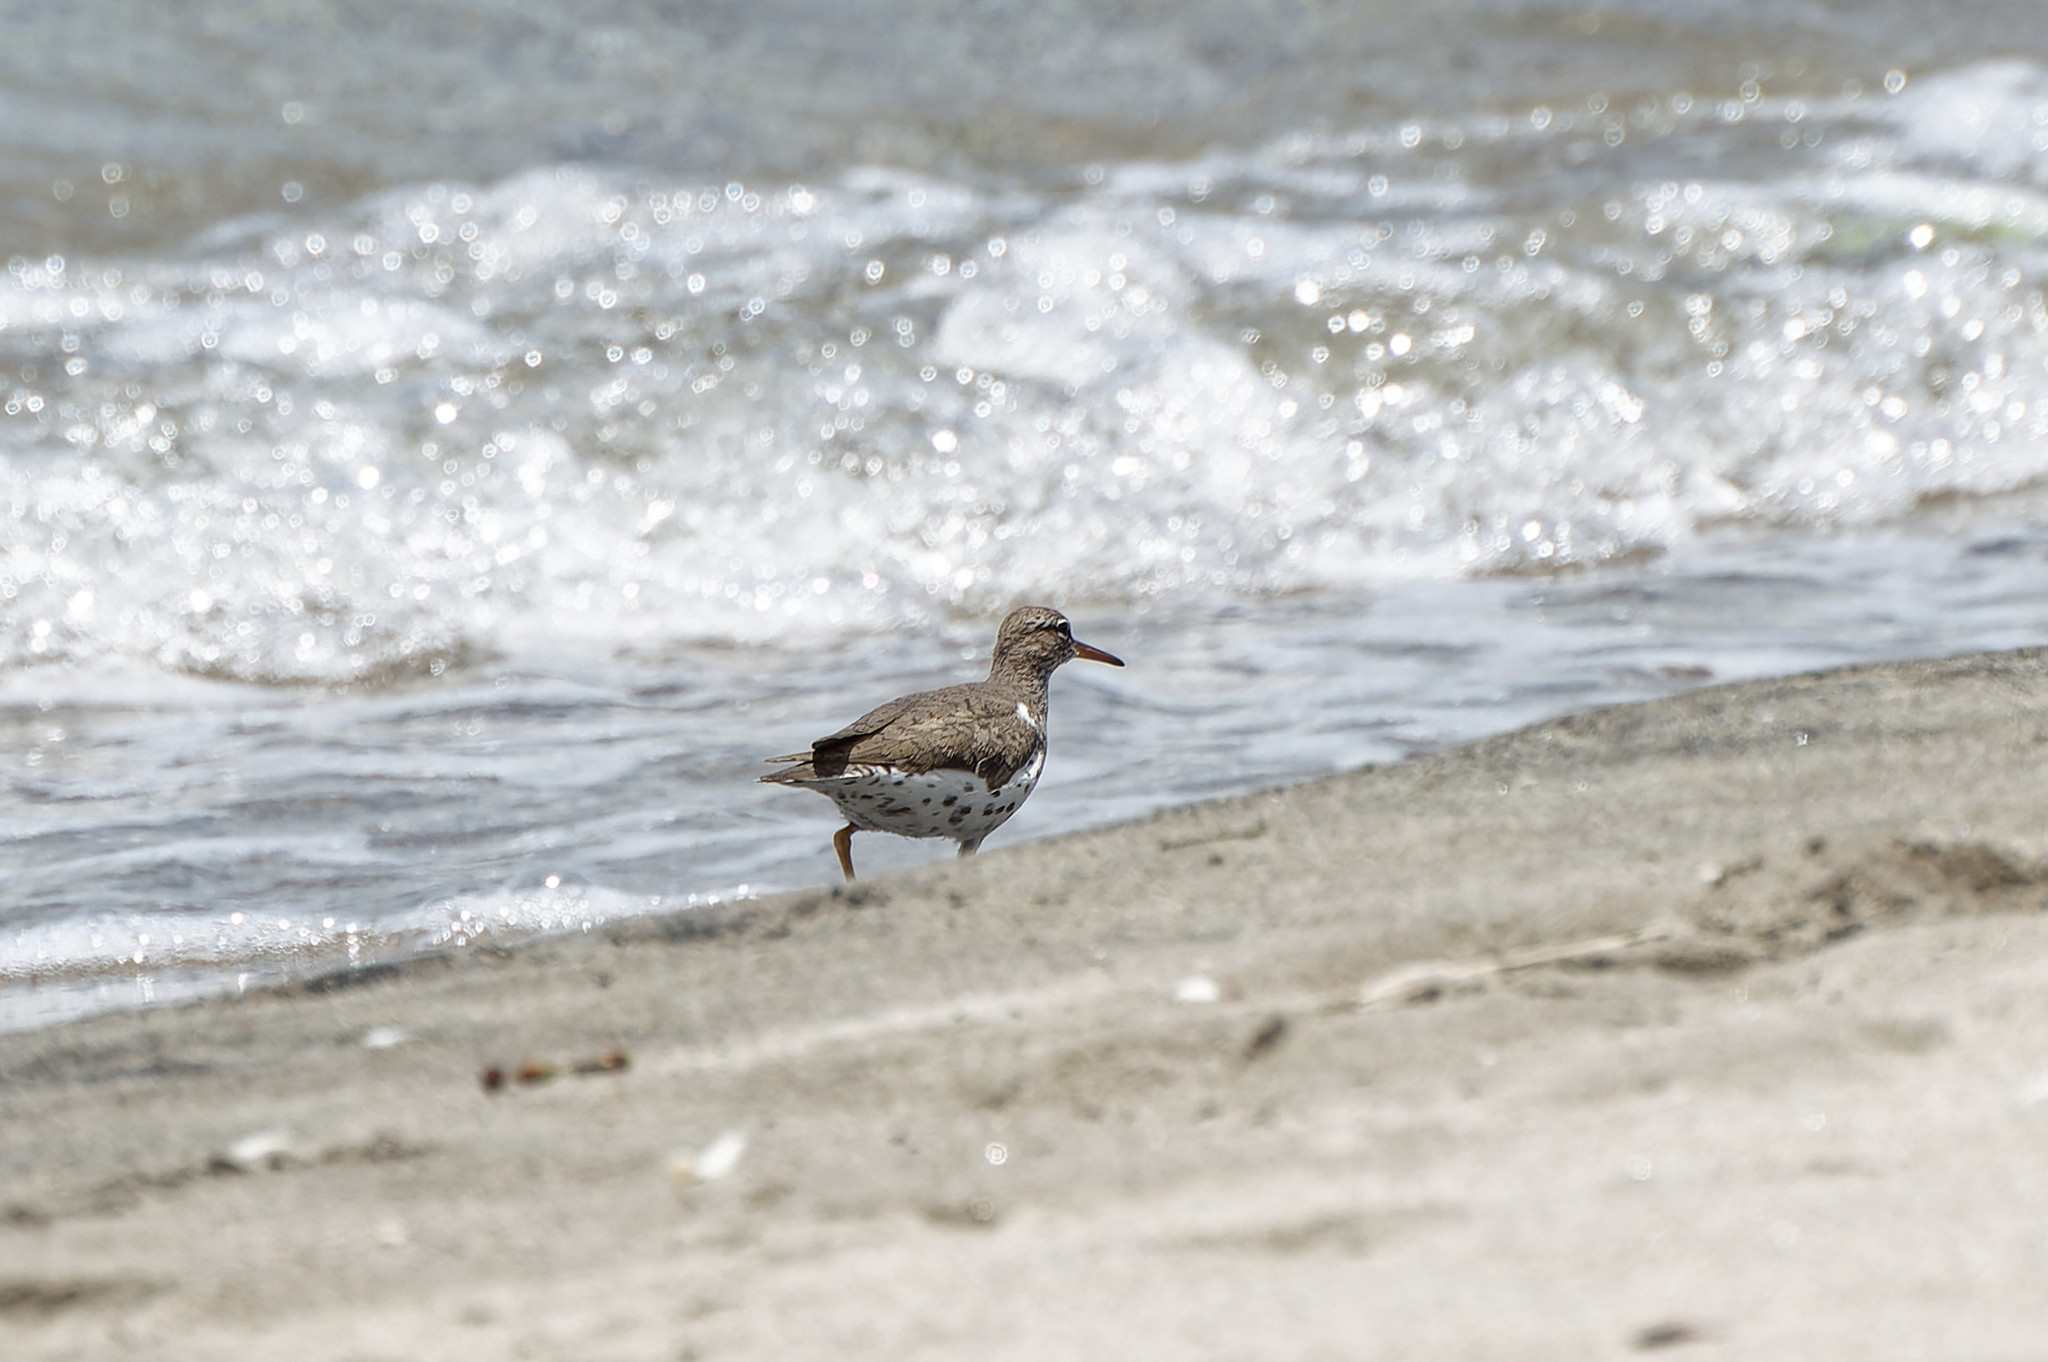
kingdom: Animalia
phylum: Chordata
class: Aves
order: Charadriiformes
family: Scolopacidae
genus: Actitis
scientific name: Actitis macularius
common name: Spotted sandpiper
